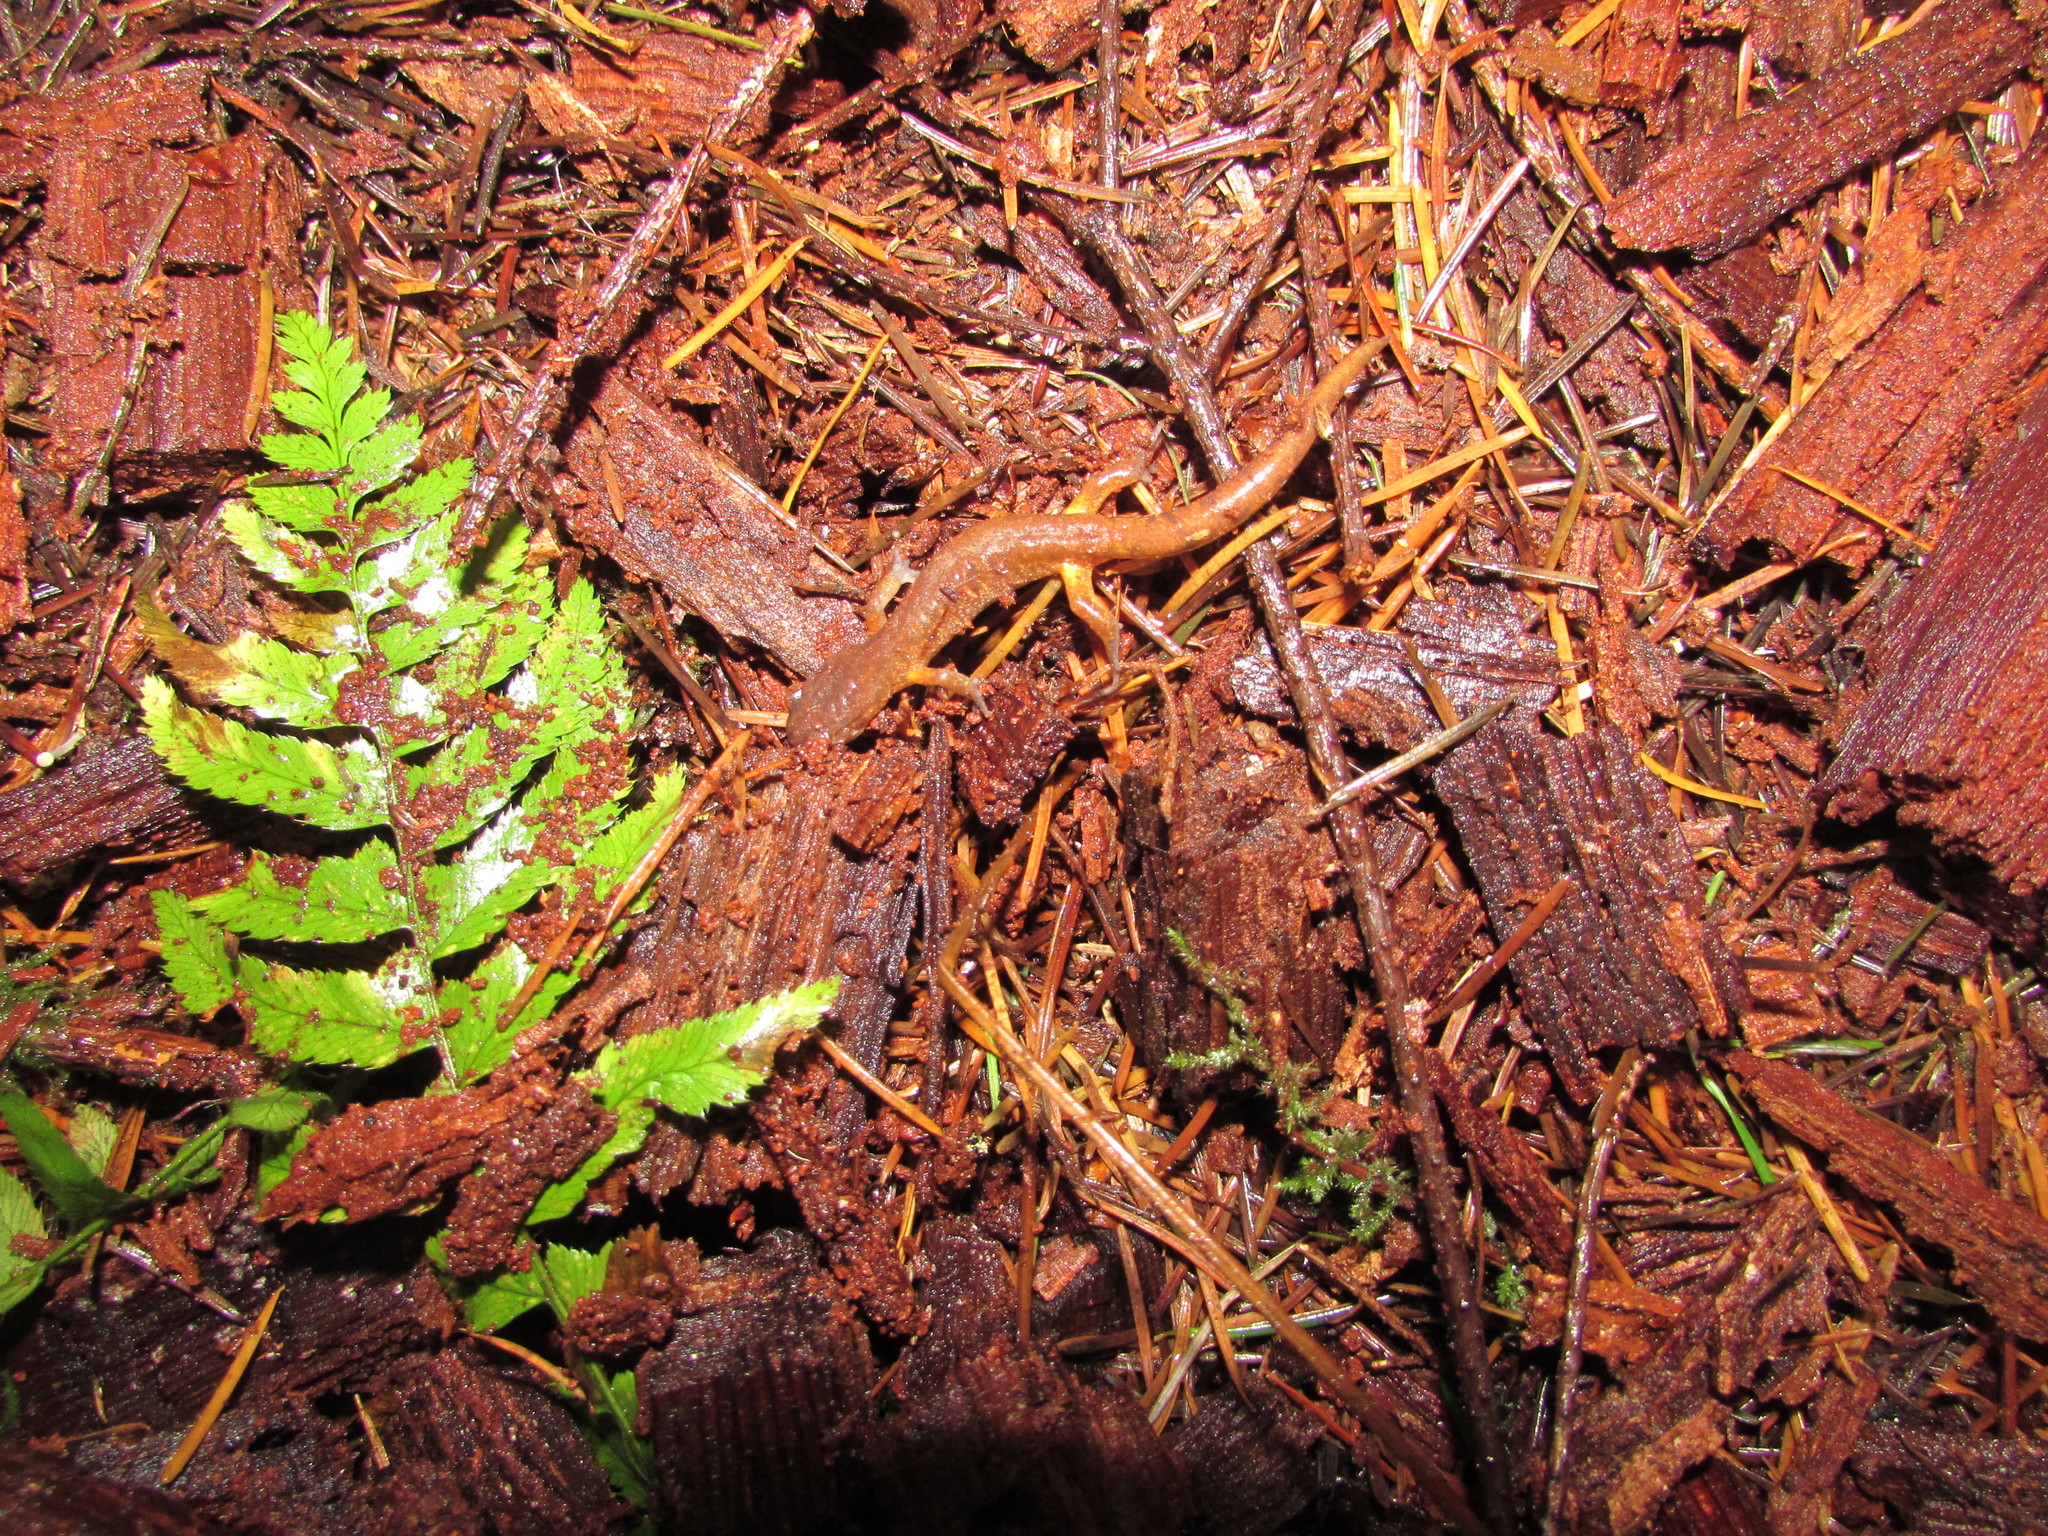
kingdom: Animalia
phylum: Chordata
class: Amphibia
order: Caudata
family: Plethodontidae
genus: Ensatina
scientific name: Ensatina eschscholtzii
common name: Ensatina
